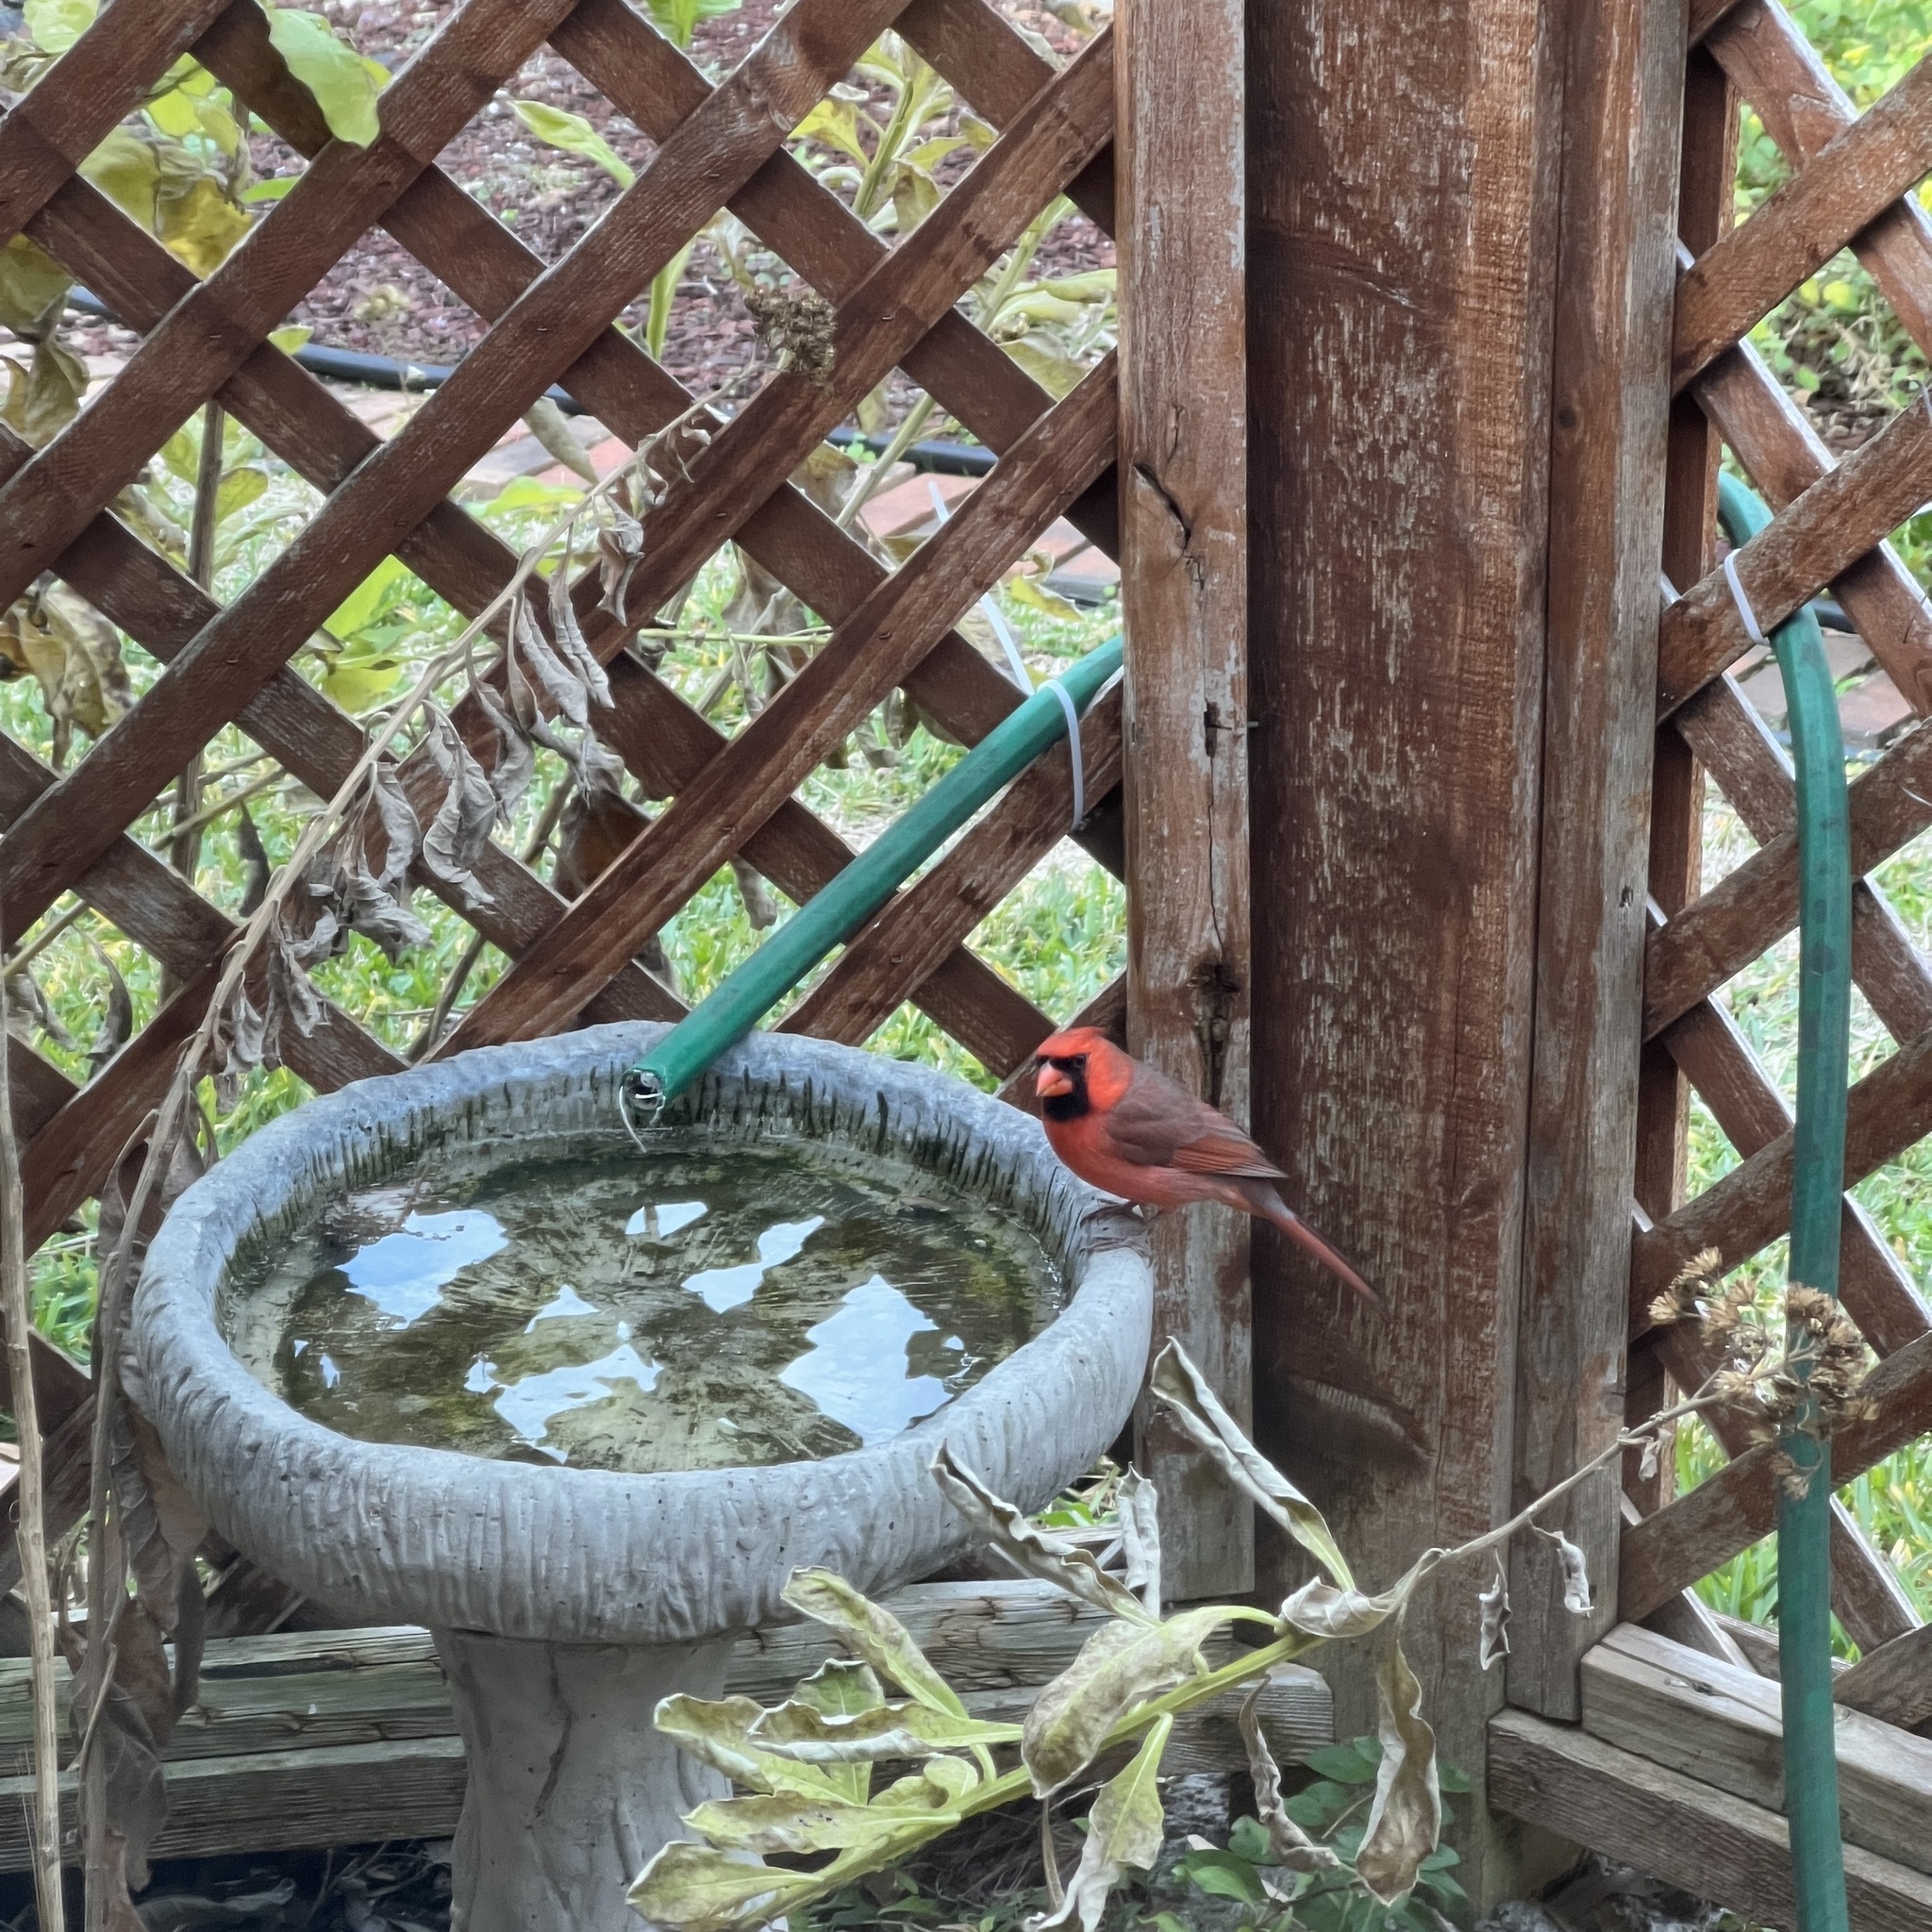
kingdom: Animalia
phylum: Chordata
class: Aves
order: Passeriformes
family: Cardinalidae
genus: Cardinalis
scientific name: Cardinalis cardinalis
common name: Northern cardinal
